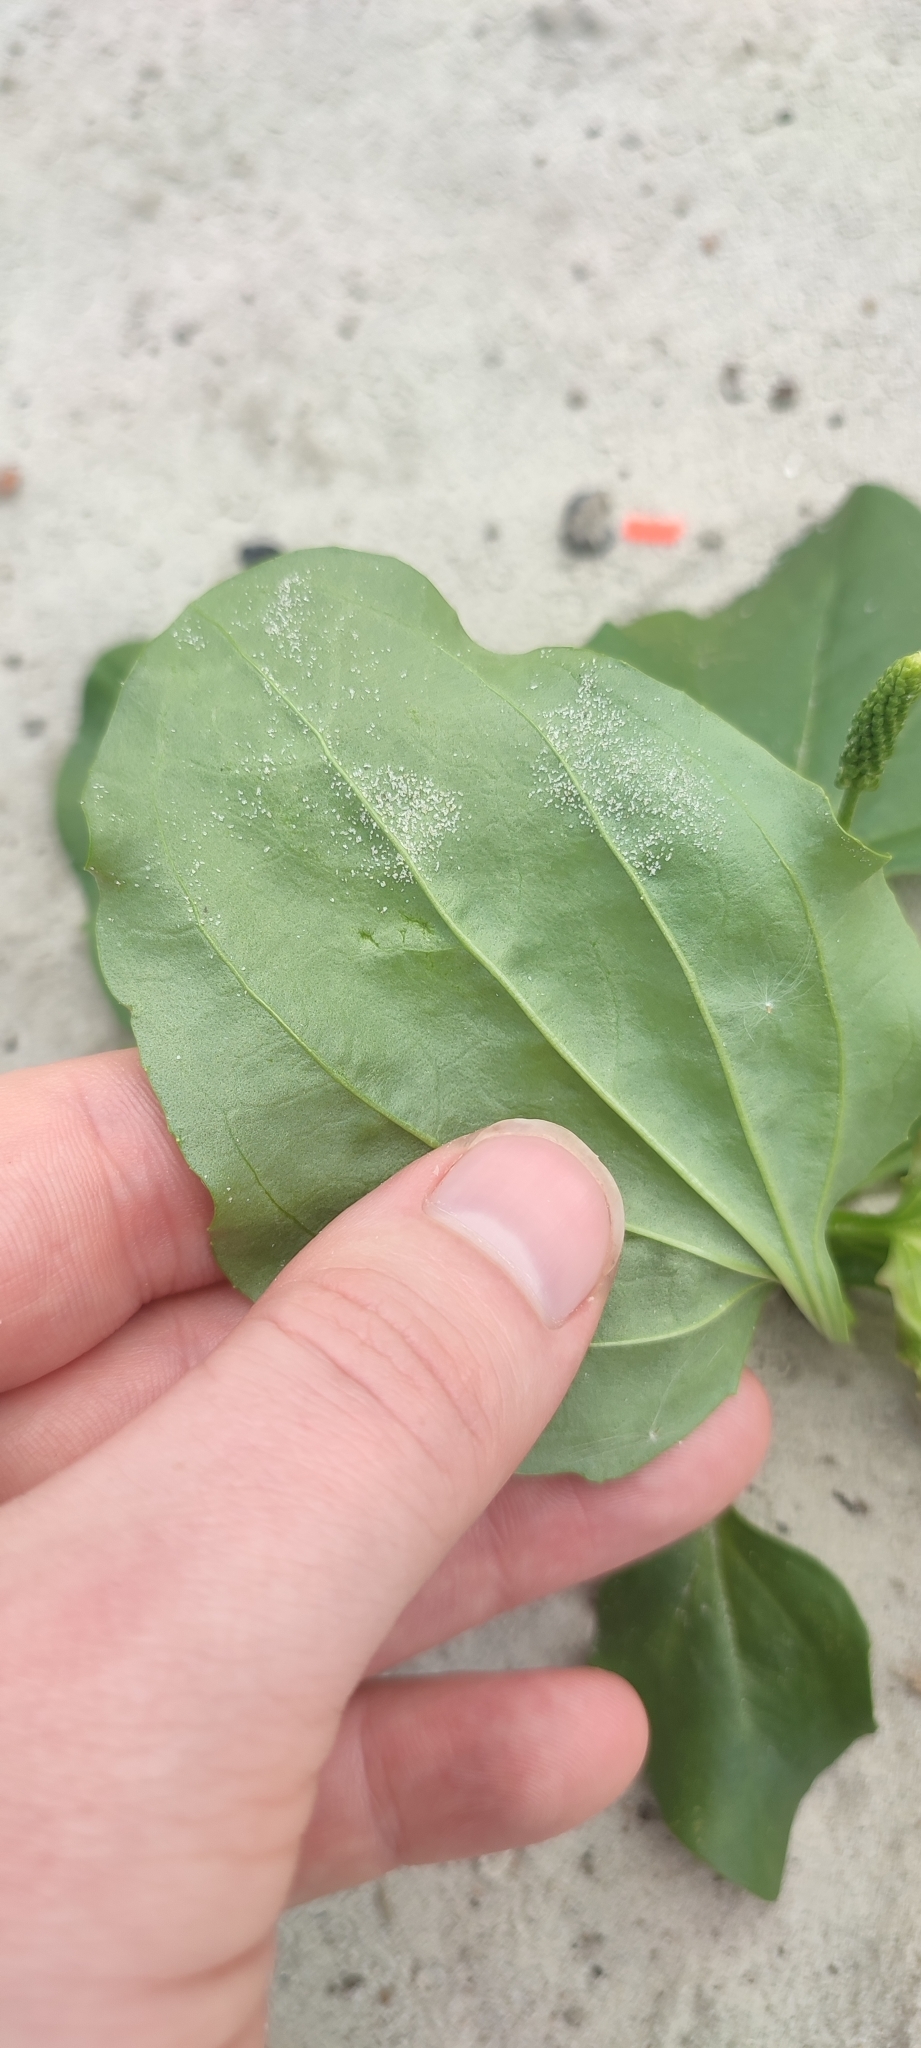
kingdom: Plantae
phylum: Tracheophyta
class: Magnoliopsida
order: Lamiales
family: Plantaginaceae
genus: Plantago
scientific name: Plantago major
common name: Common plantain
